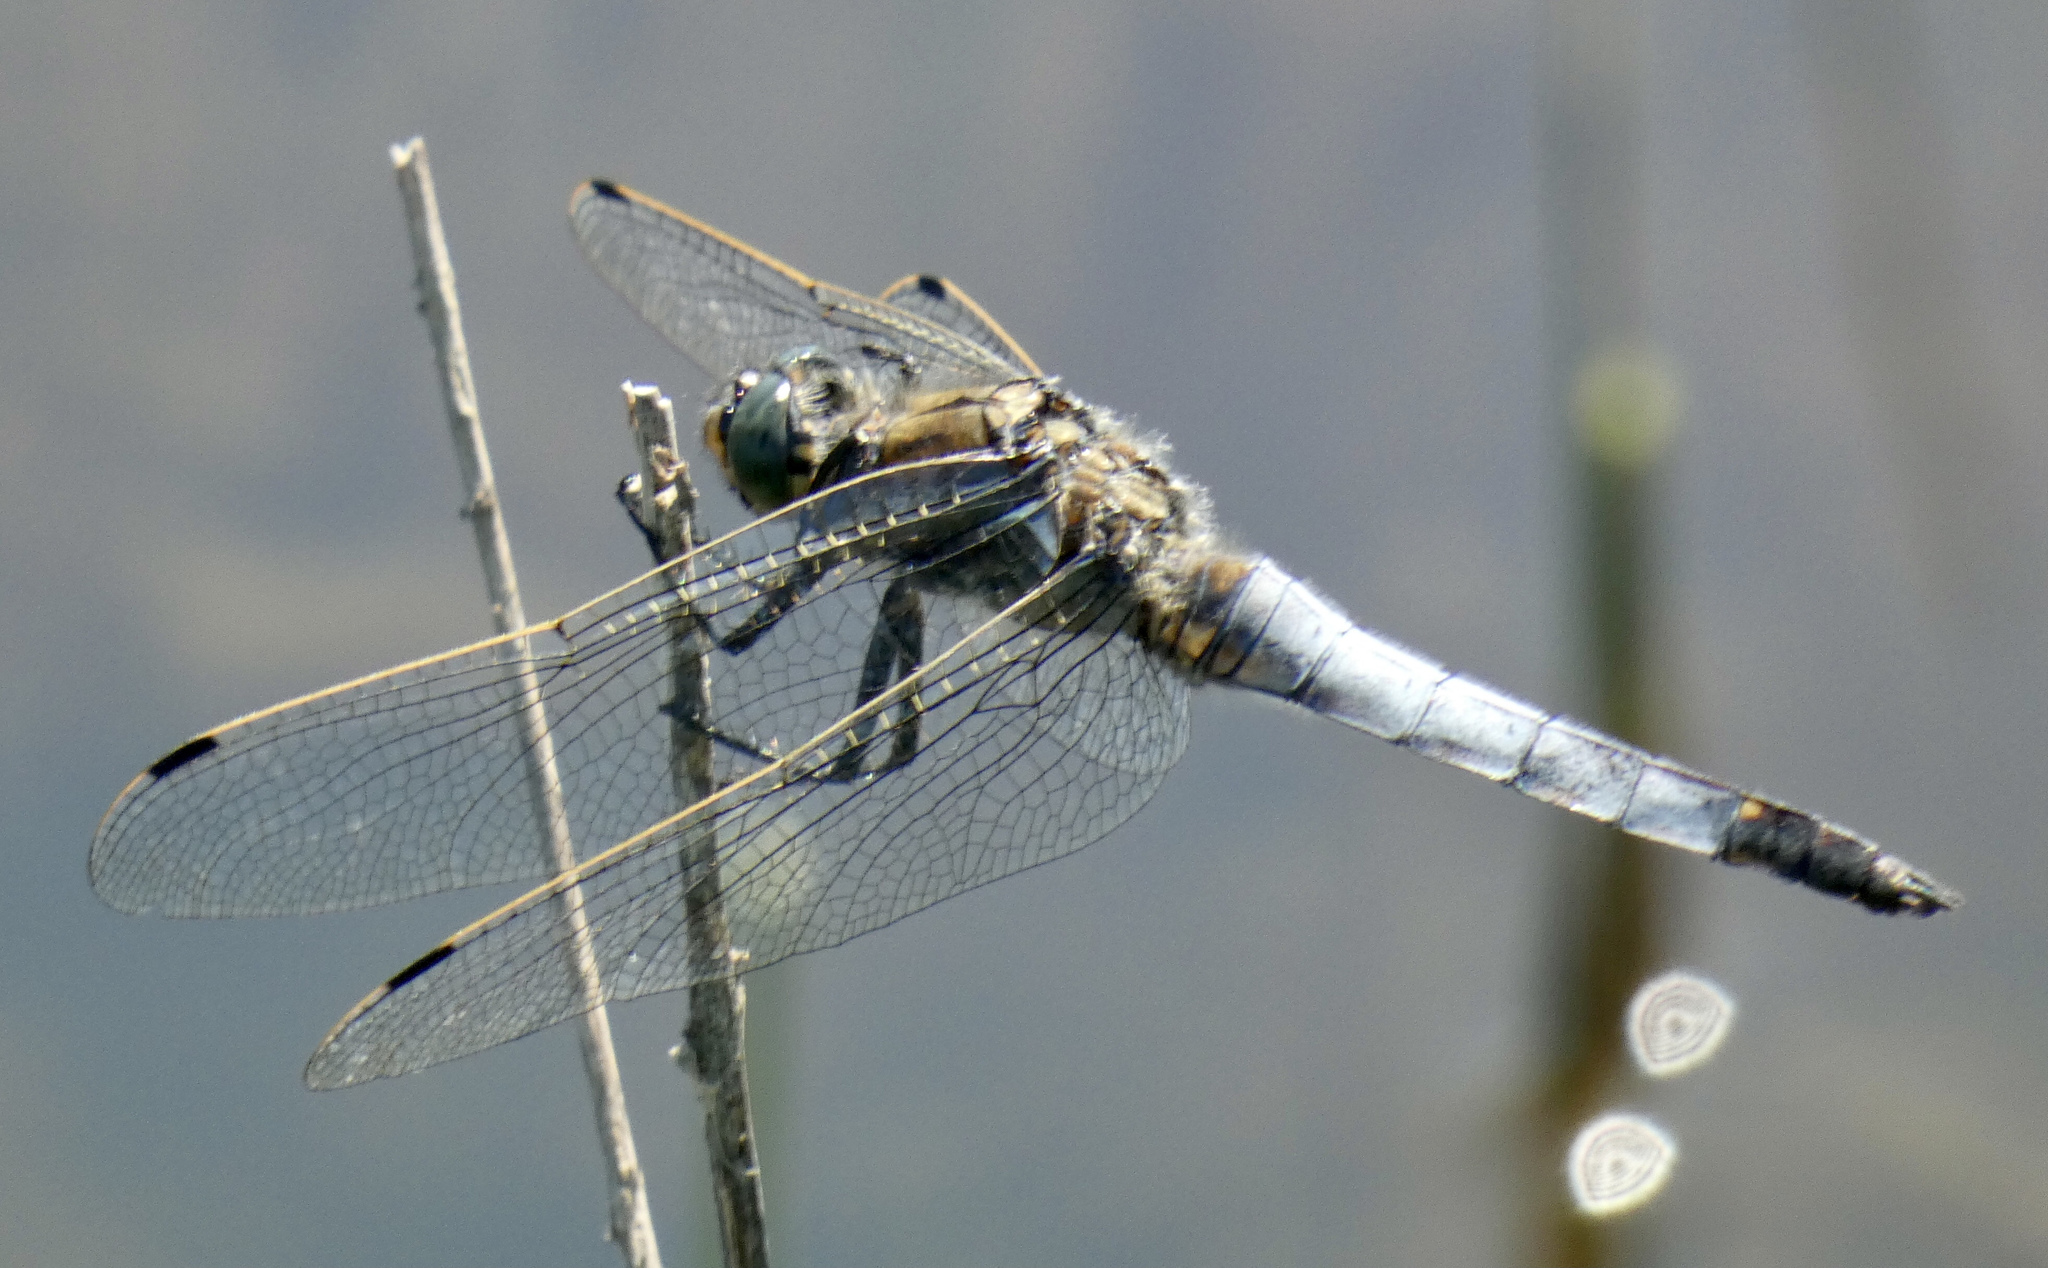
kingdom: Animalia
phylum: Arthropoda
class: Insecta
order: Odonata
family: Libellulidae
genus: Orthetrum
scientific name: Orthetrum cancellatum
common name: Black-tailed skimmer
